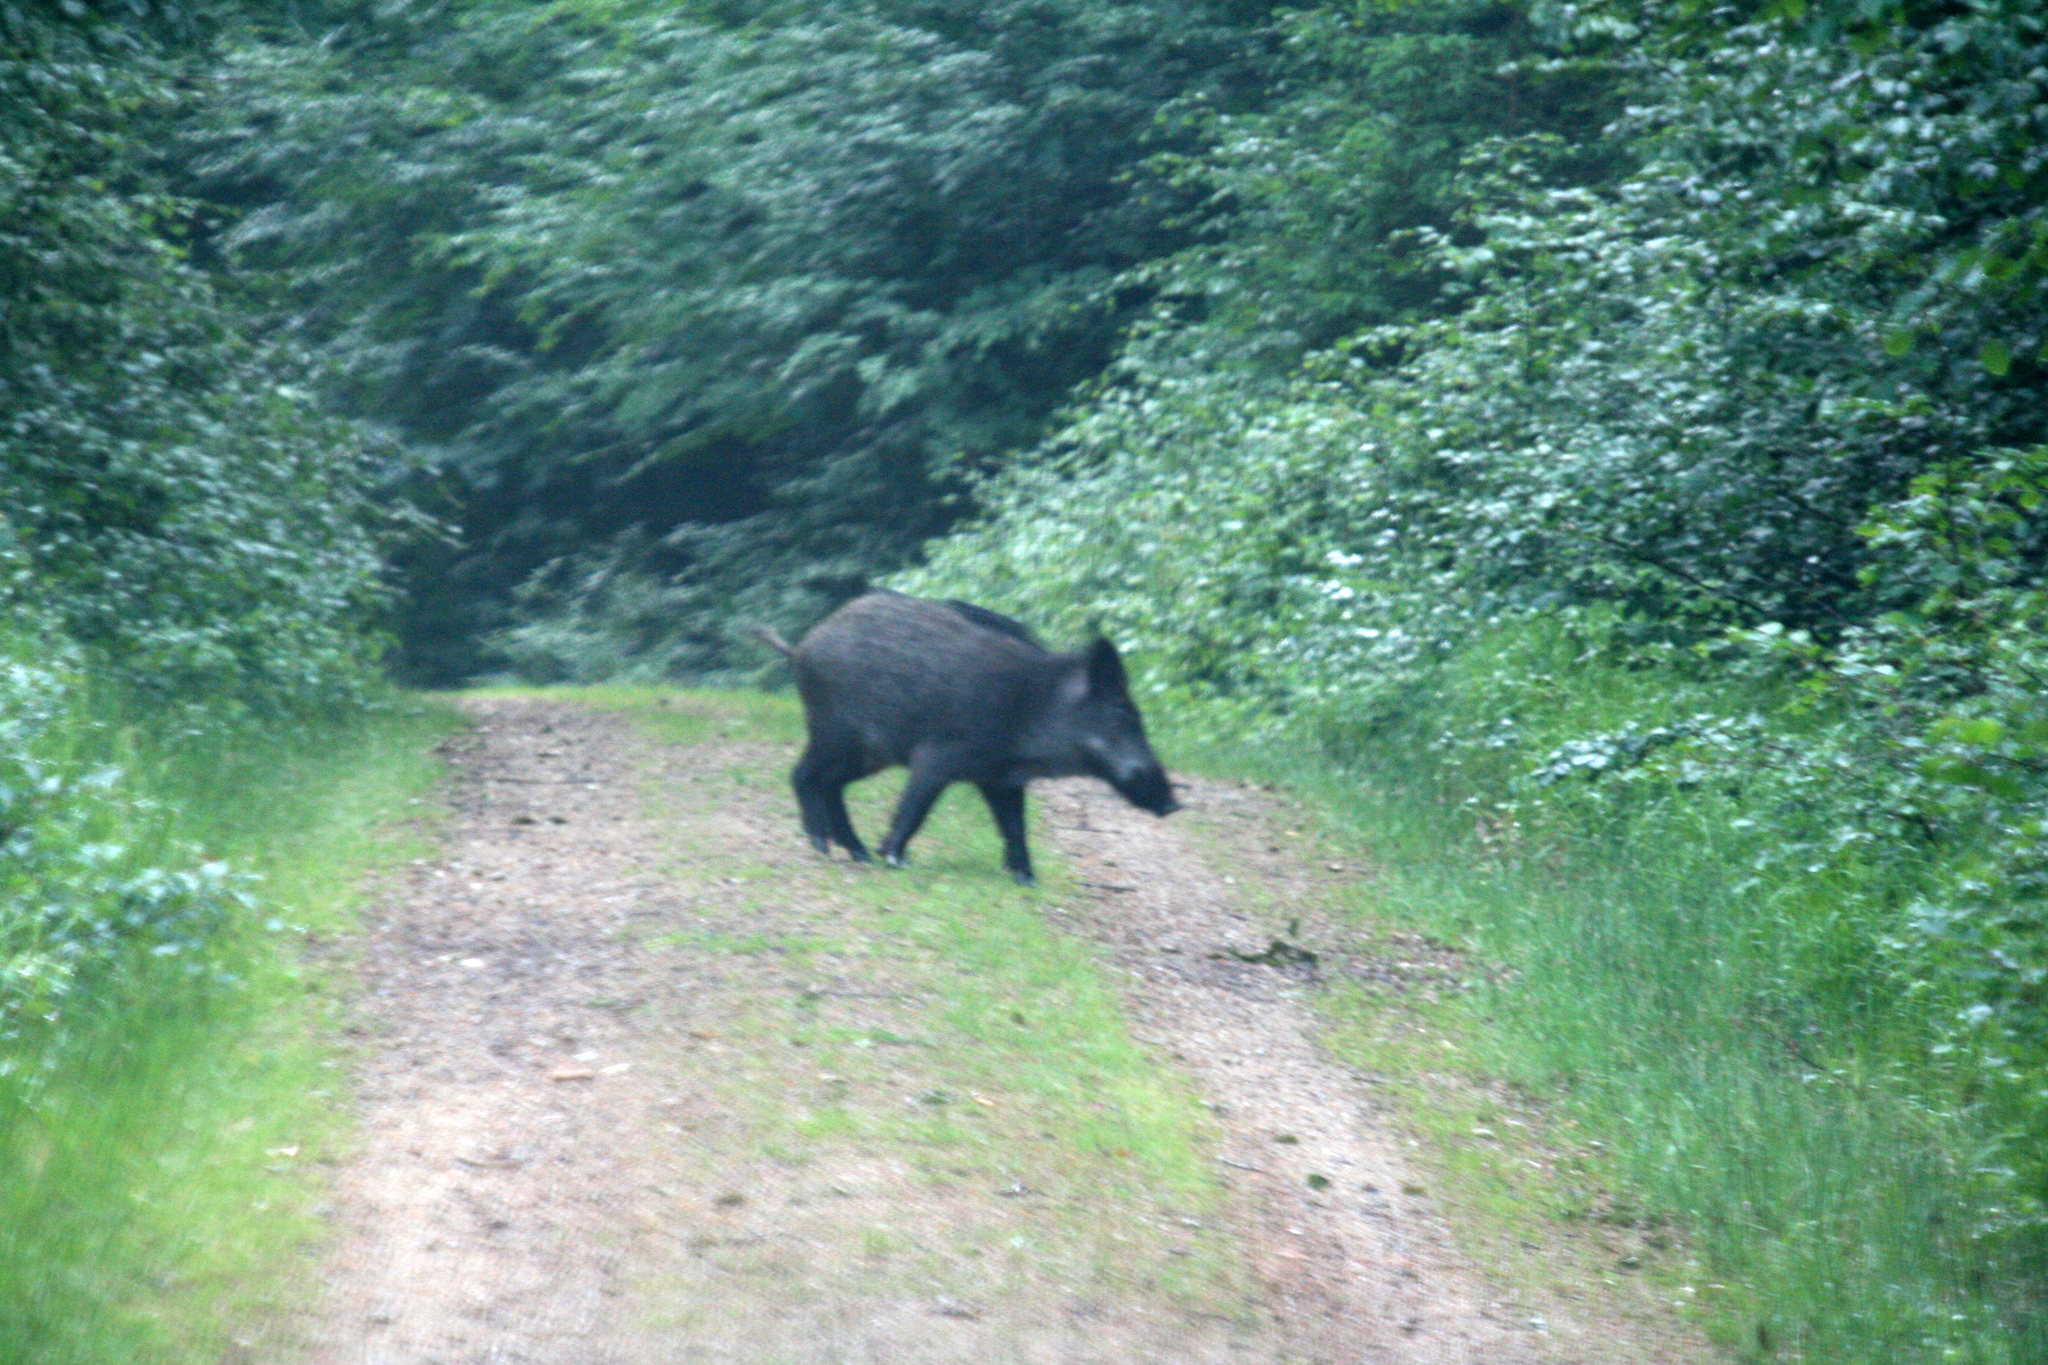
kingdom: Animalia
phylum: Chordata
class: Mammalia
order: Artiodactyla
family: Suidae
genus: Sus
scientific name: Sus scrofa
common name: Wild boar
